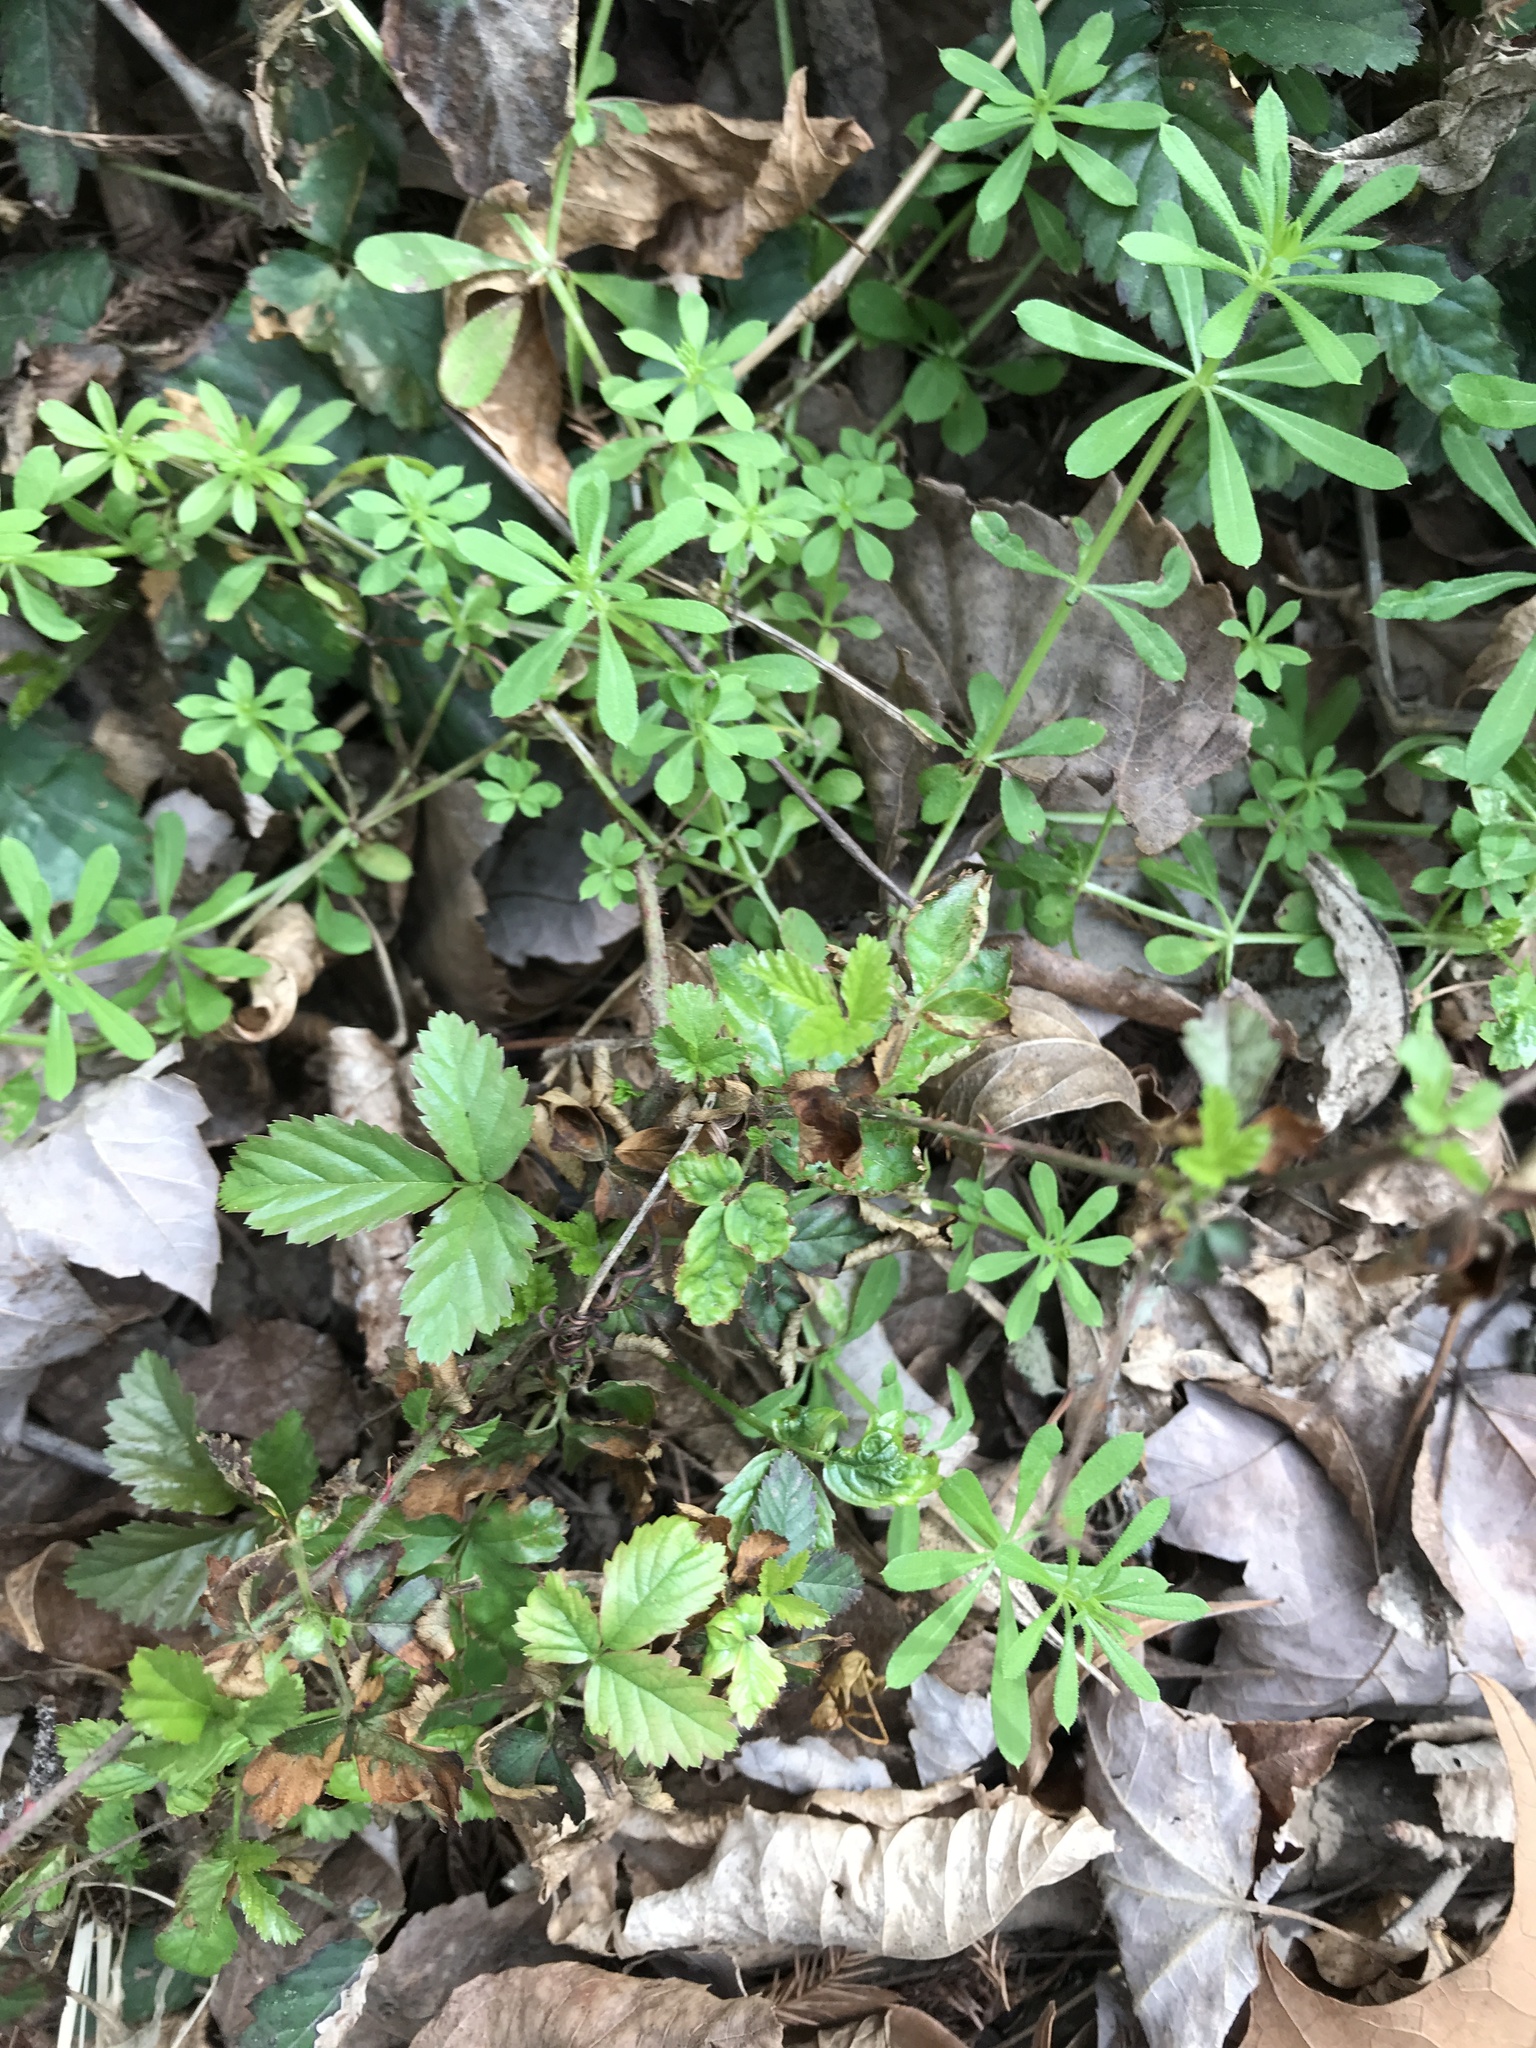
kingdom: Plantae
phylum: Tracheophyta
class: Magnoliopsida
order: Gentianales
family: Rubiaceae
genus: Galium
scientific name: Galium aparine
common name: Cleavers
